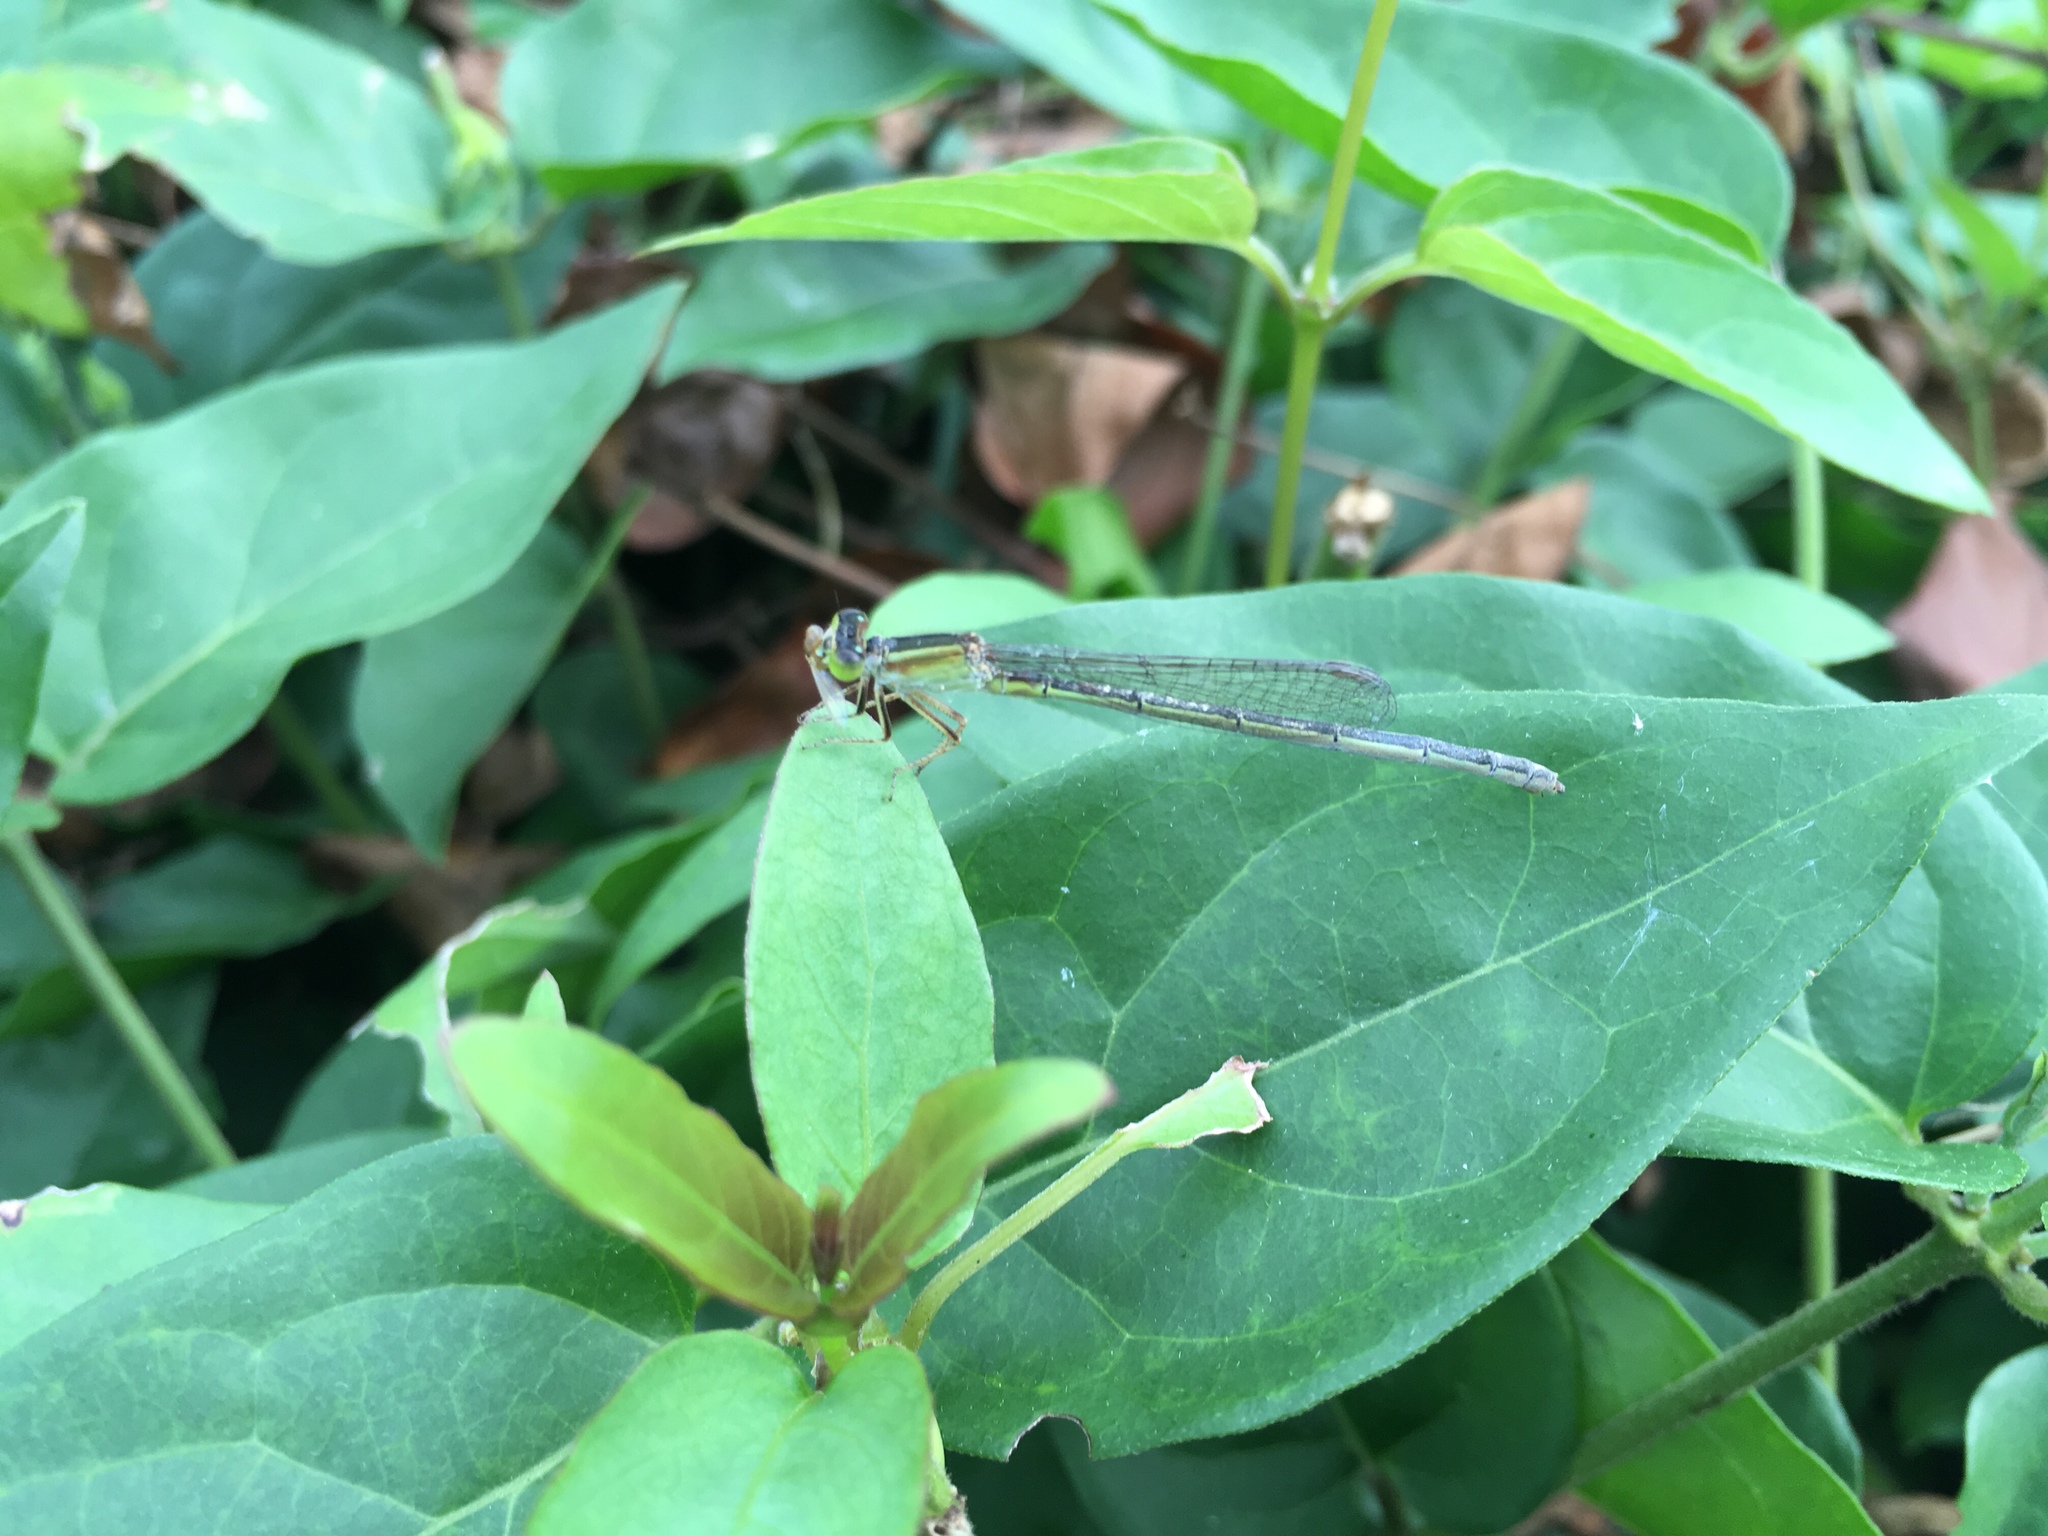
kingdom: Animalia
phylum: Arthropoda
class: Insecta
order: Odonata
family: Coenagrionidae
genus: Ischnura
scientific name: Ischnura senegalensis
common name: Tropical bluetail
